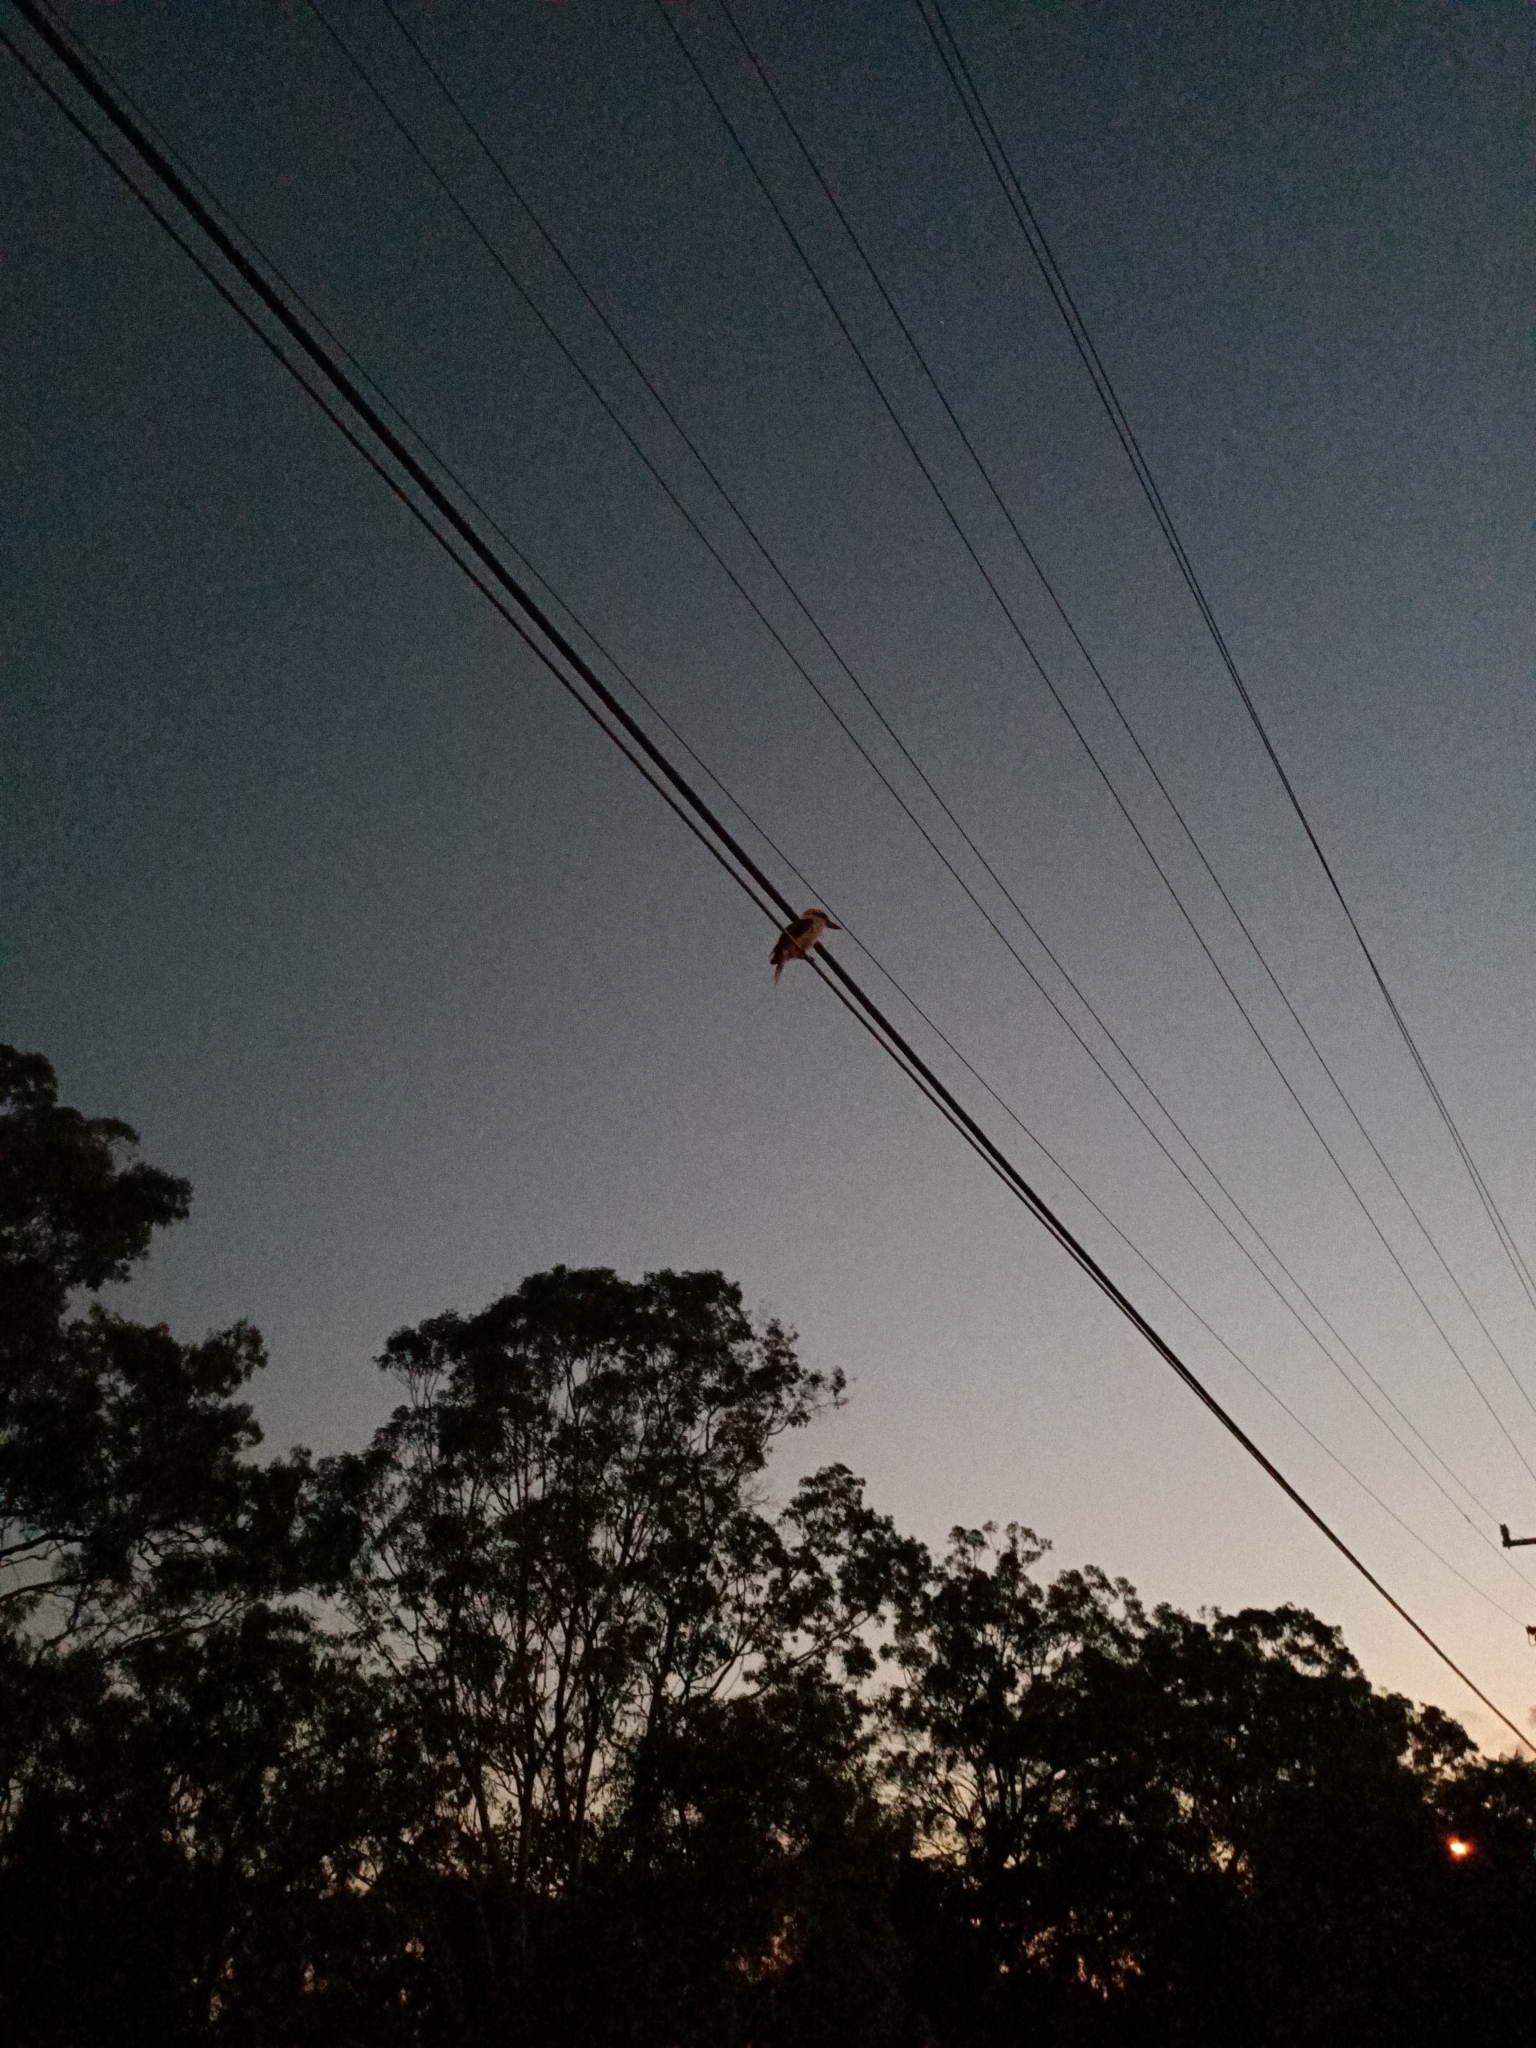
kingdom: Animalia
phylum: Chordata
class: Aves
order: Coraciiformes
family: Alcedinidae
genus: Dacelo
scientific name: Dacelo novaeguineae
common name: Laughing kookaburra
